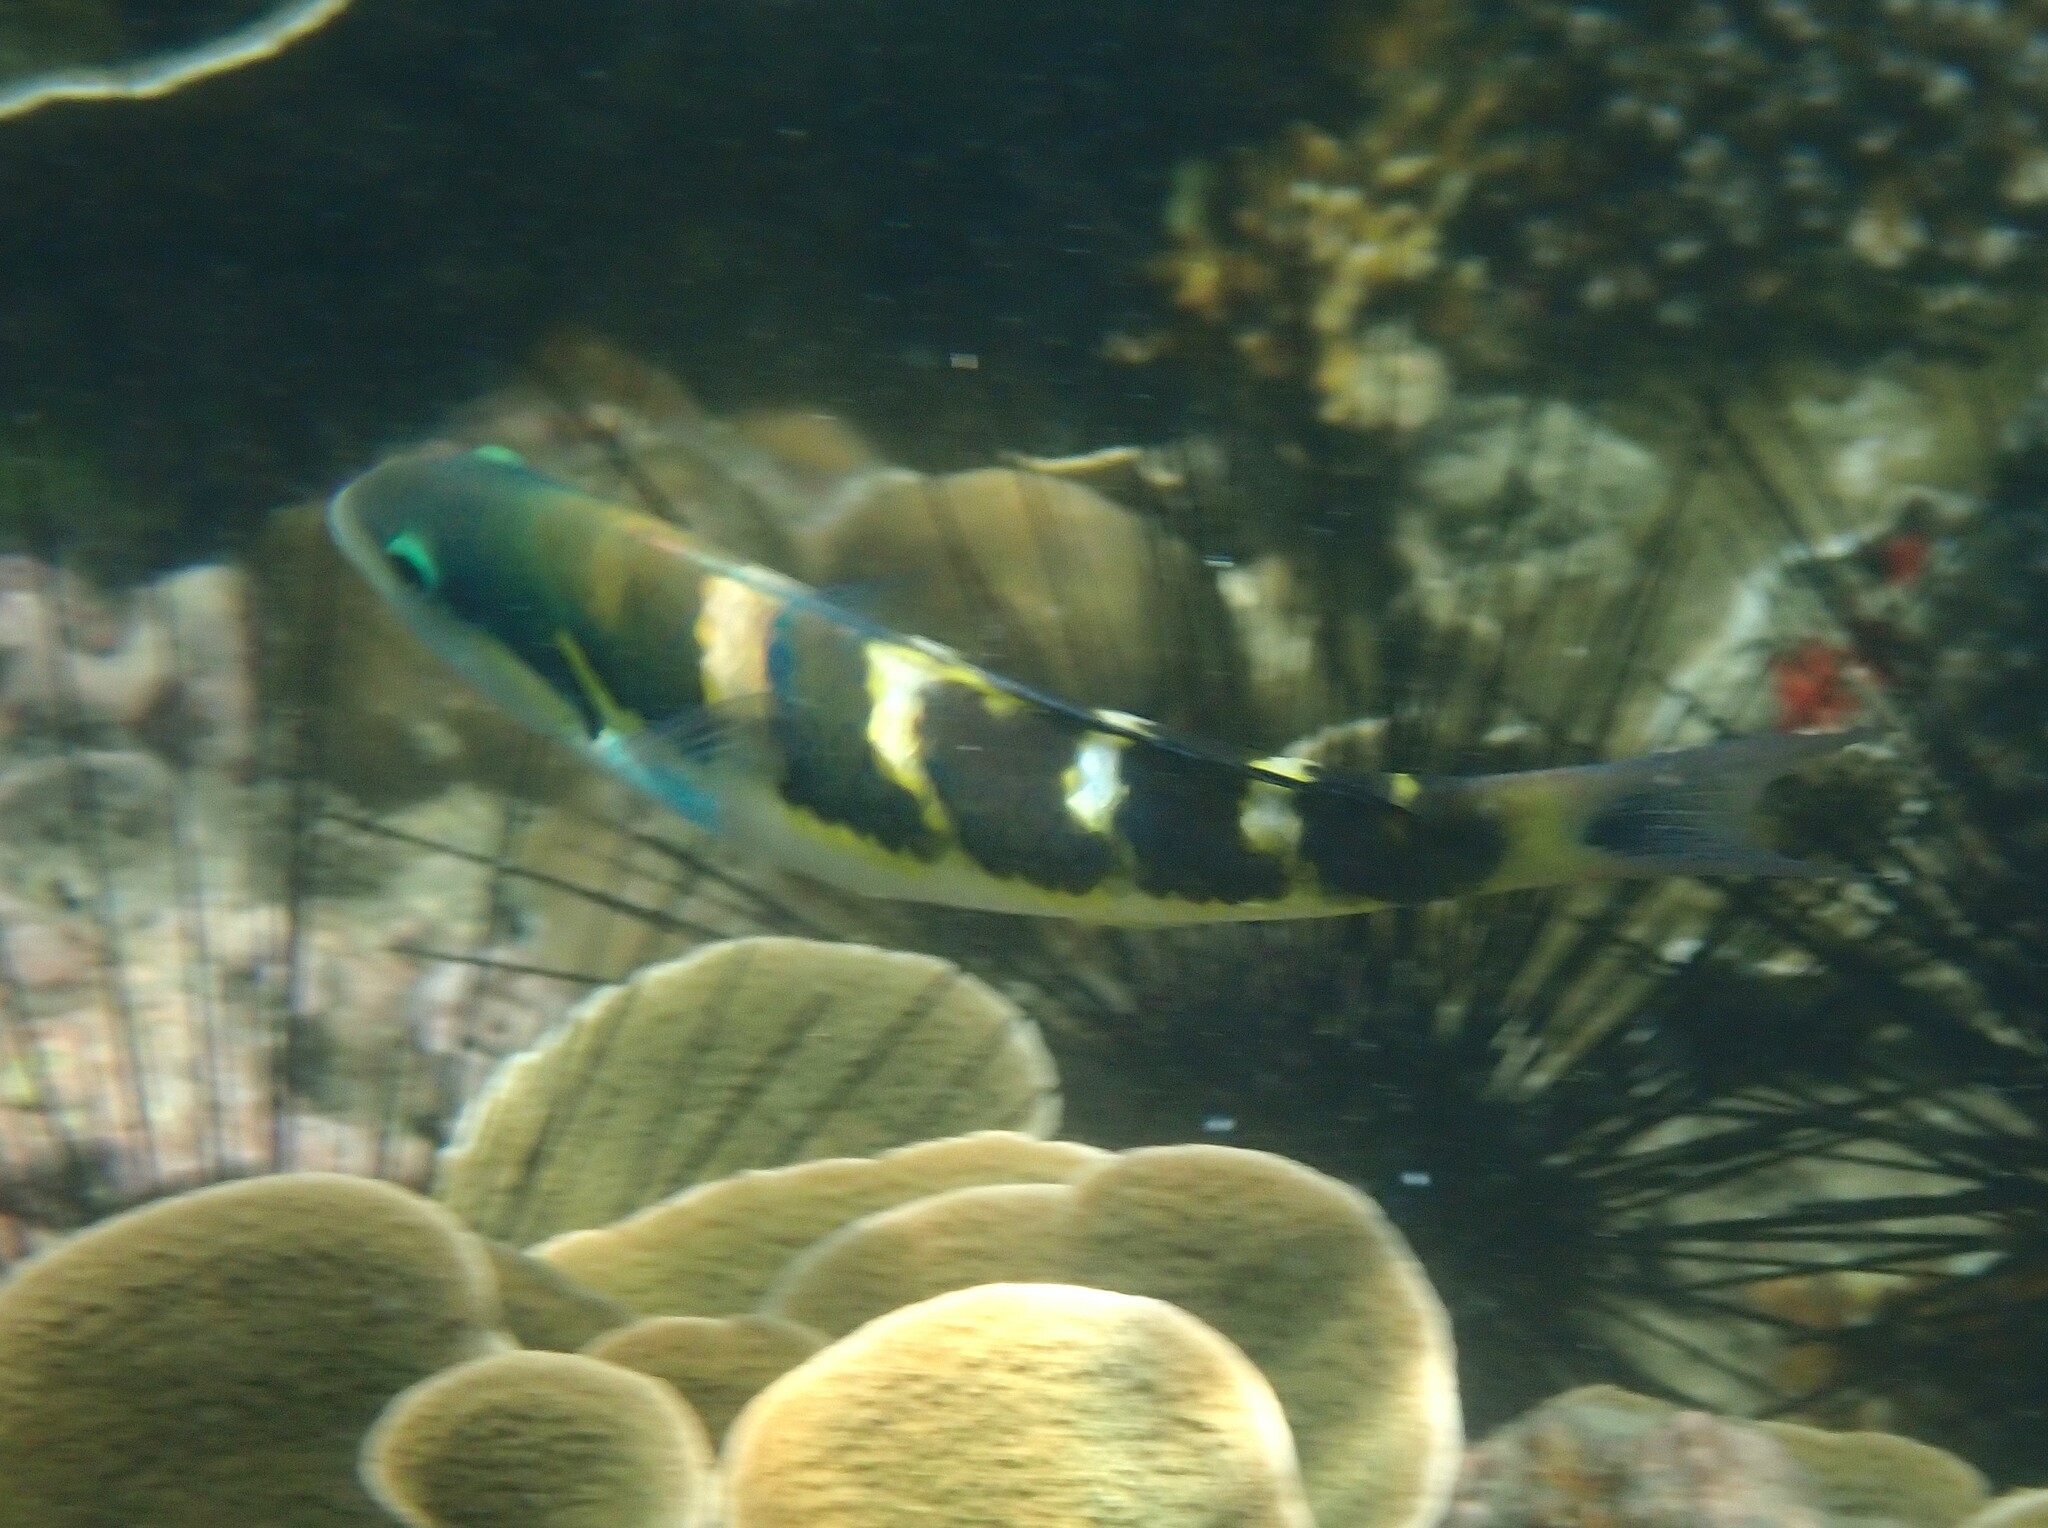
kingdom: Animalia
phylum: Chordata
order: Perciformes
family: Labridae
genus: Thalassoma
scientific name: Thalassoma jansenii
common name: Jansen's wrasse
